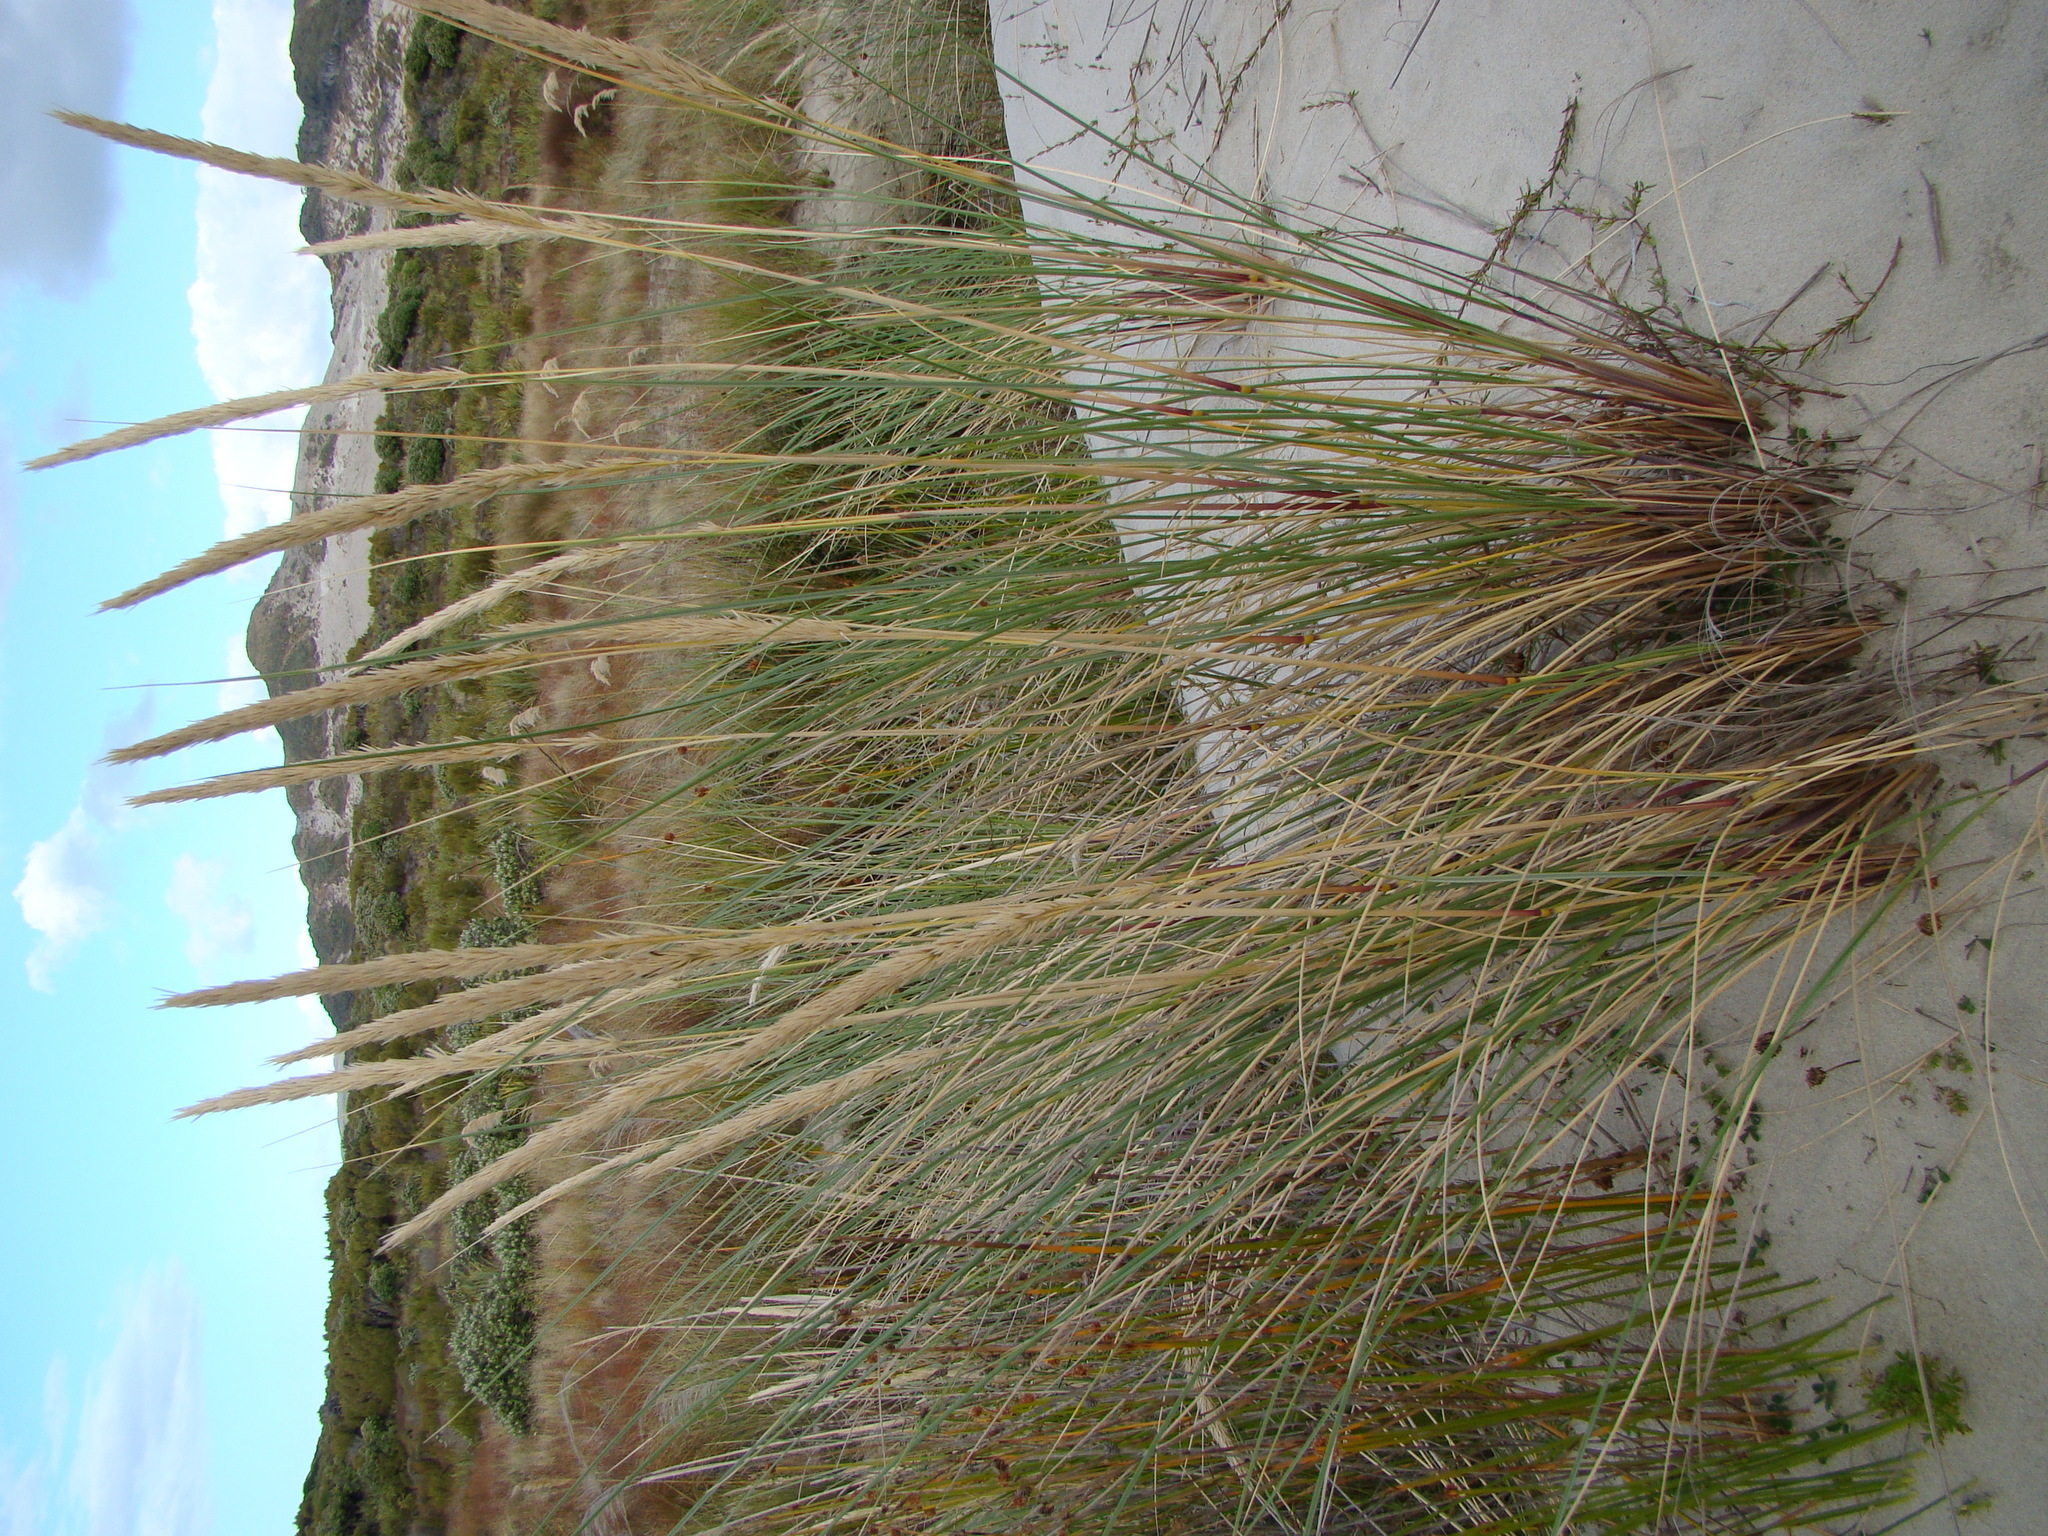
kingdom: Plantae
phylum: Tracheophyta
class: Liliopsida
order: Poales
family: Poaceae
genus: Calamagrostis
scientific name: Calamagrostis arenaria
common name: European beachgrass
